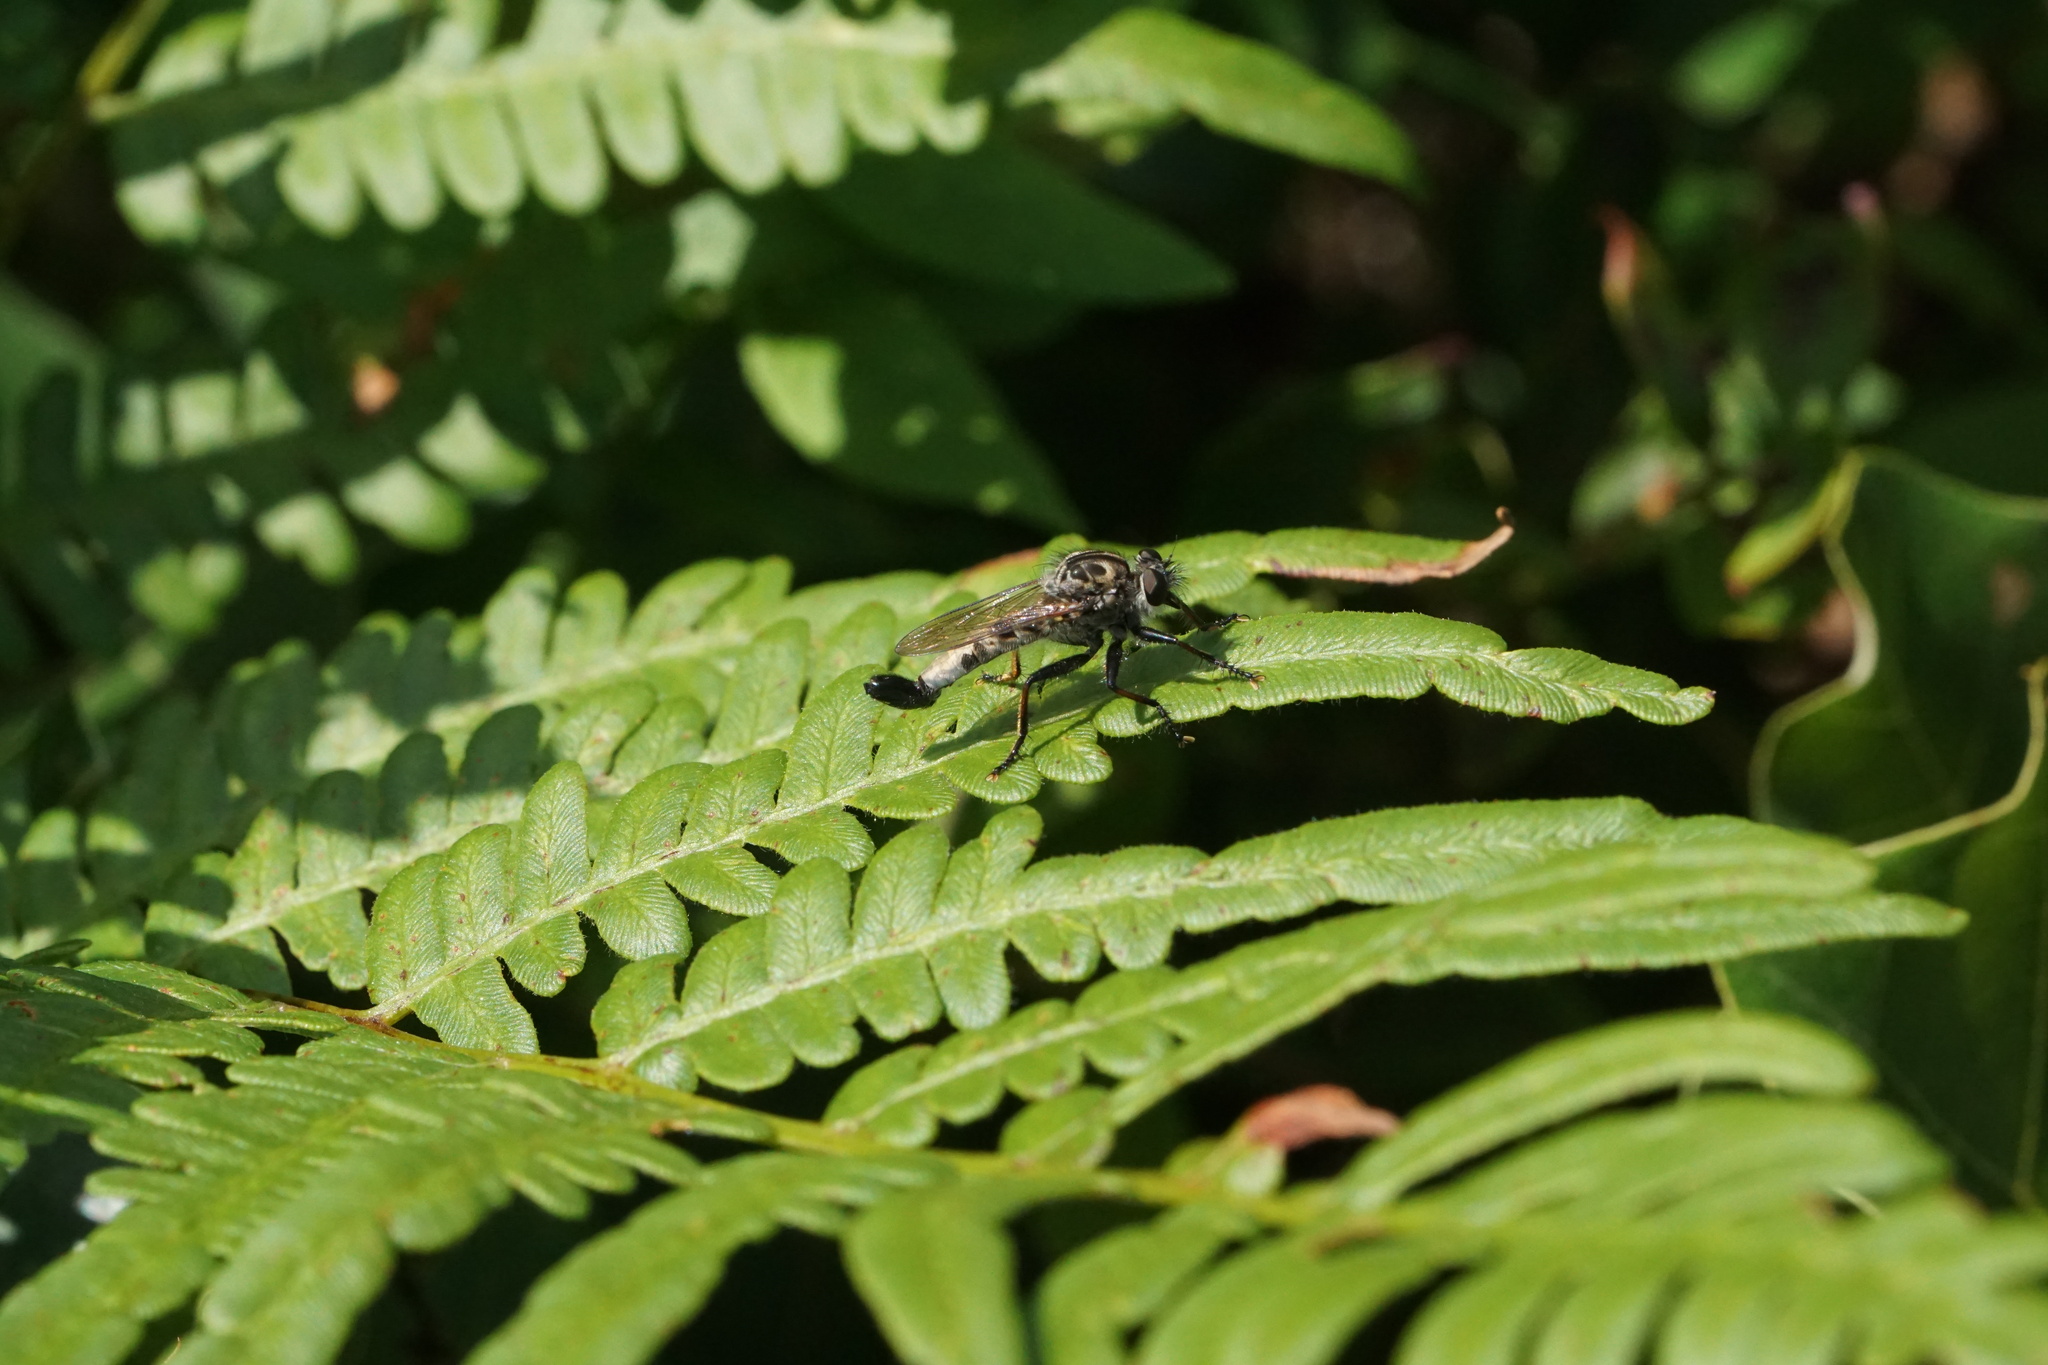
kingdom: Animalia
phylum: Arthropoda
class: Insecta
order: Diptera
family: Asilidae
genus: Efferia
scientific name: Efferia aestuans
